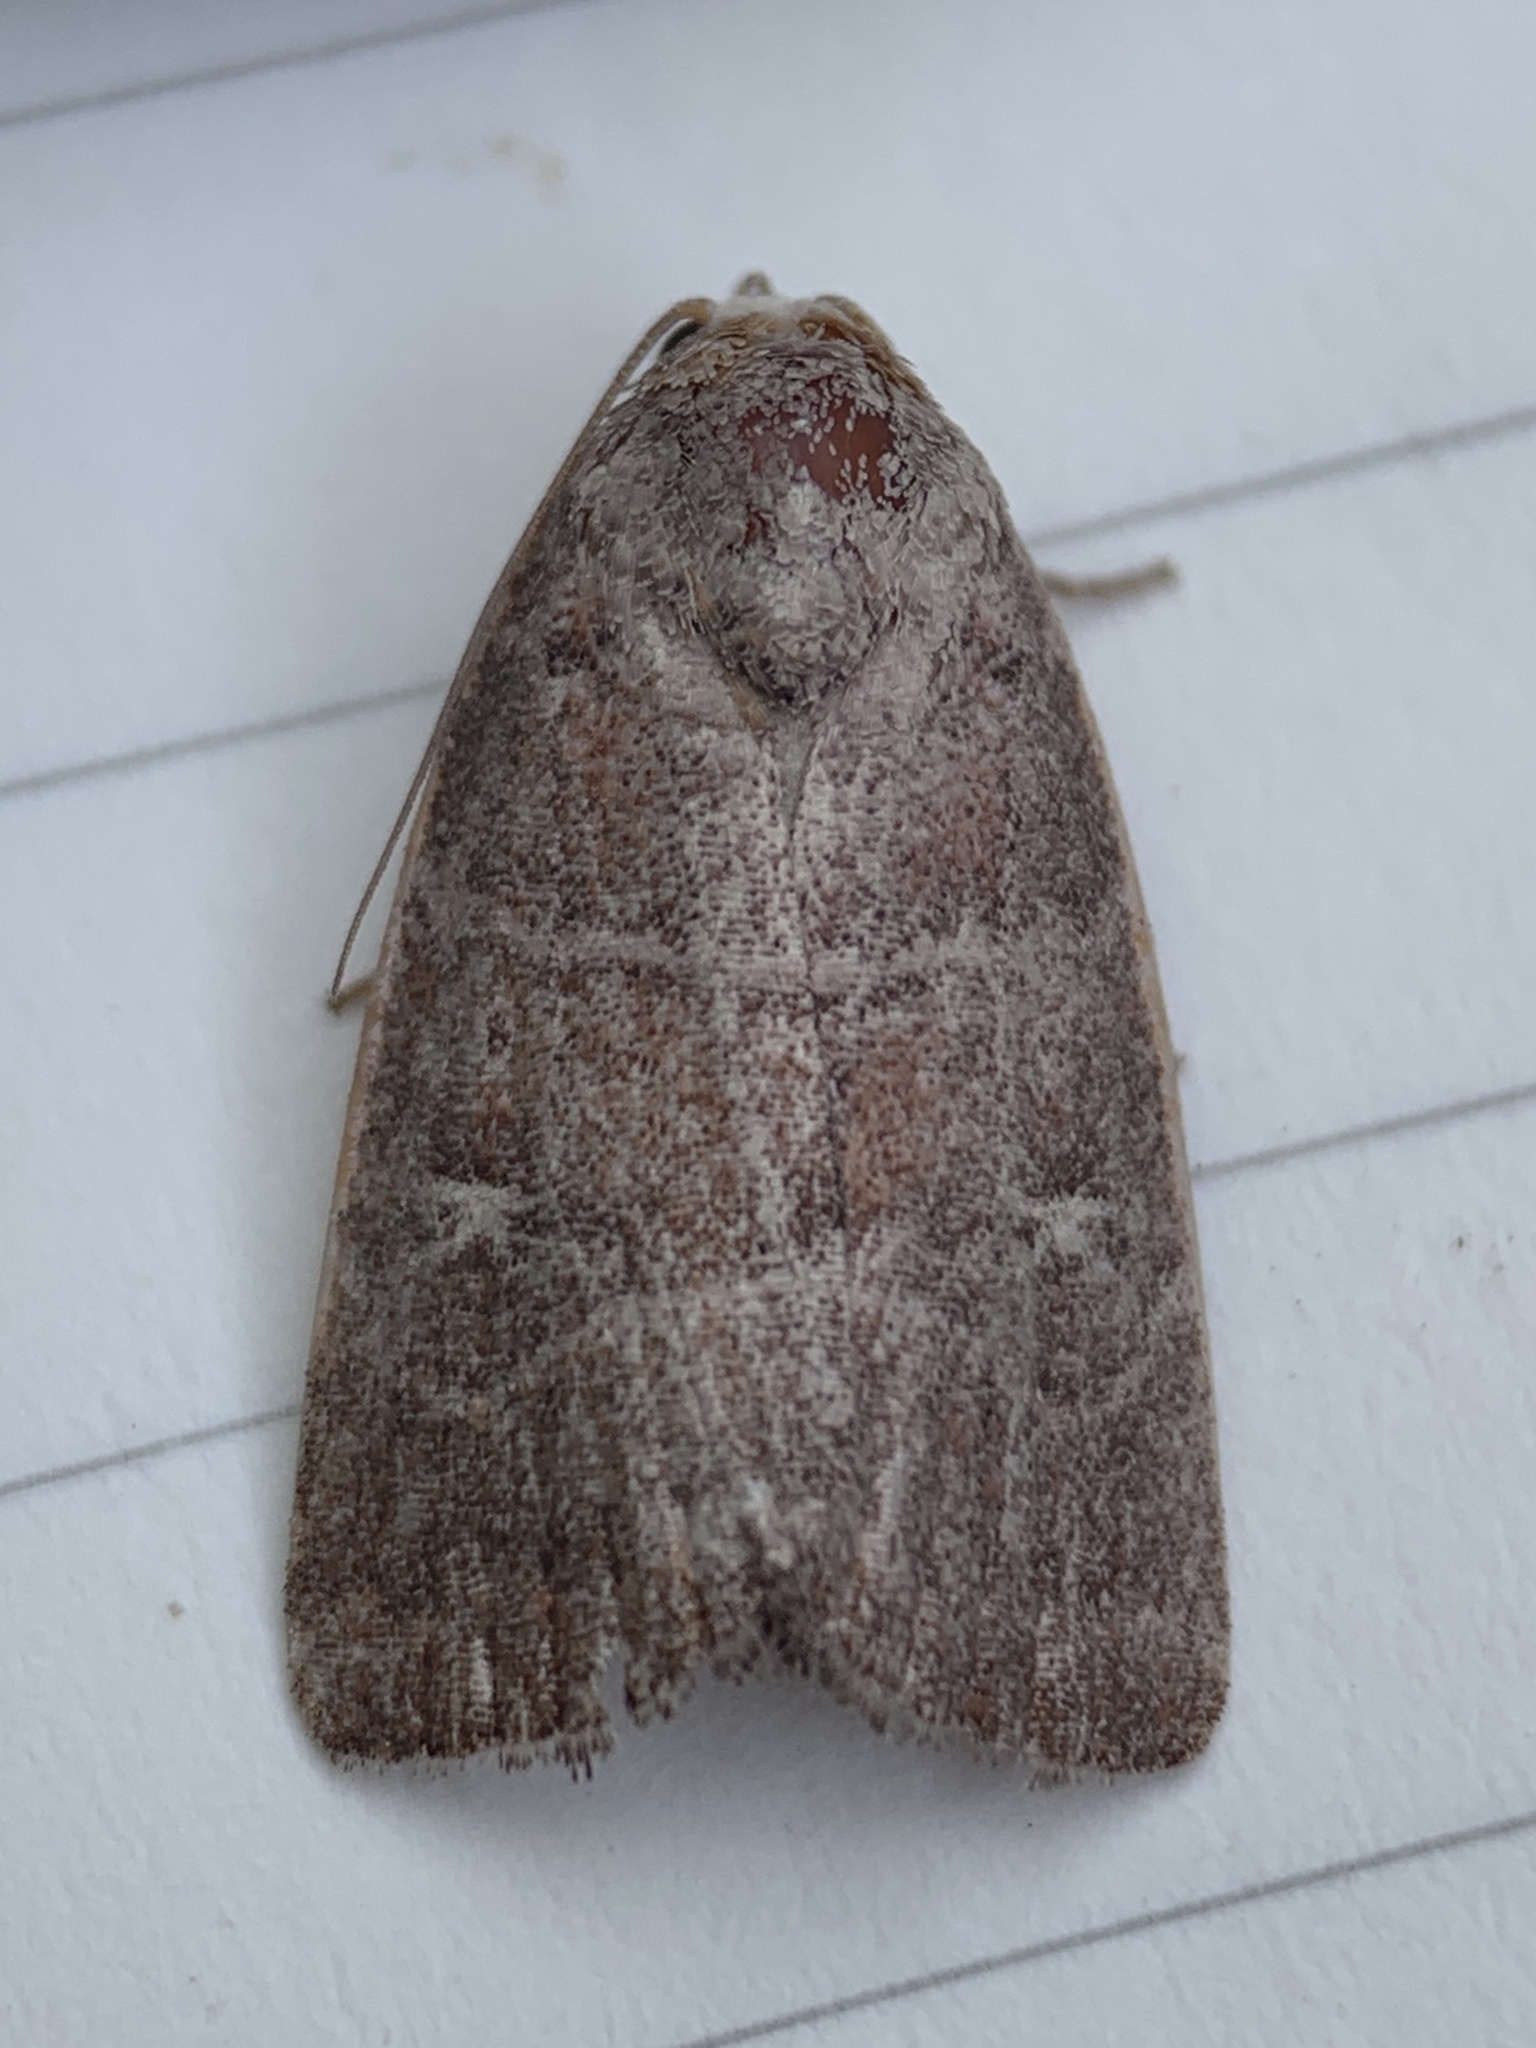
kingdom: Animalia
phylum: Arthropoda
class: Insecta
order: Lepidoptera
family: Noctuidae
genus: Elaphria
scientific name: Elaphria grata
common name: Grateful midget moth
